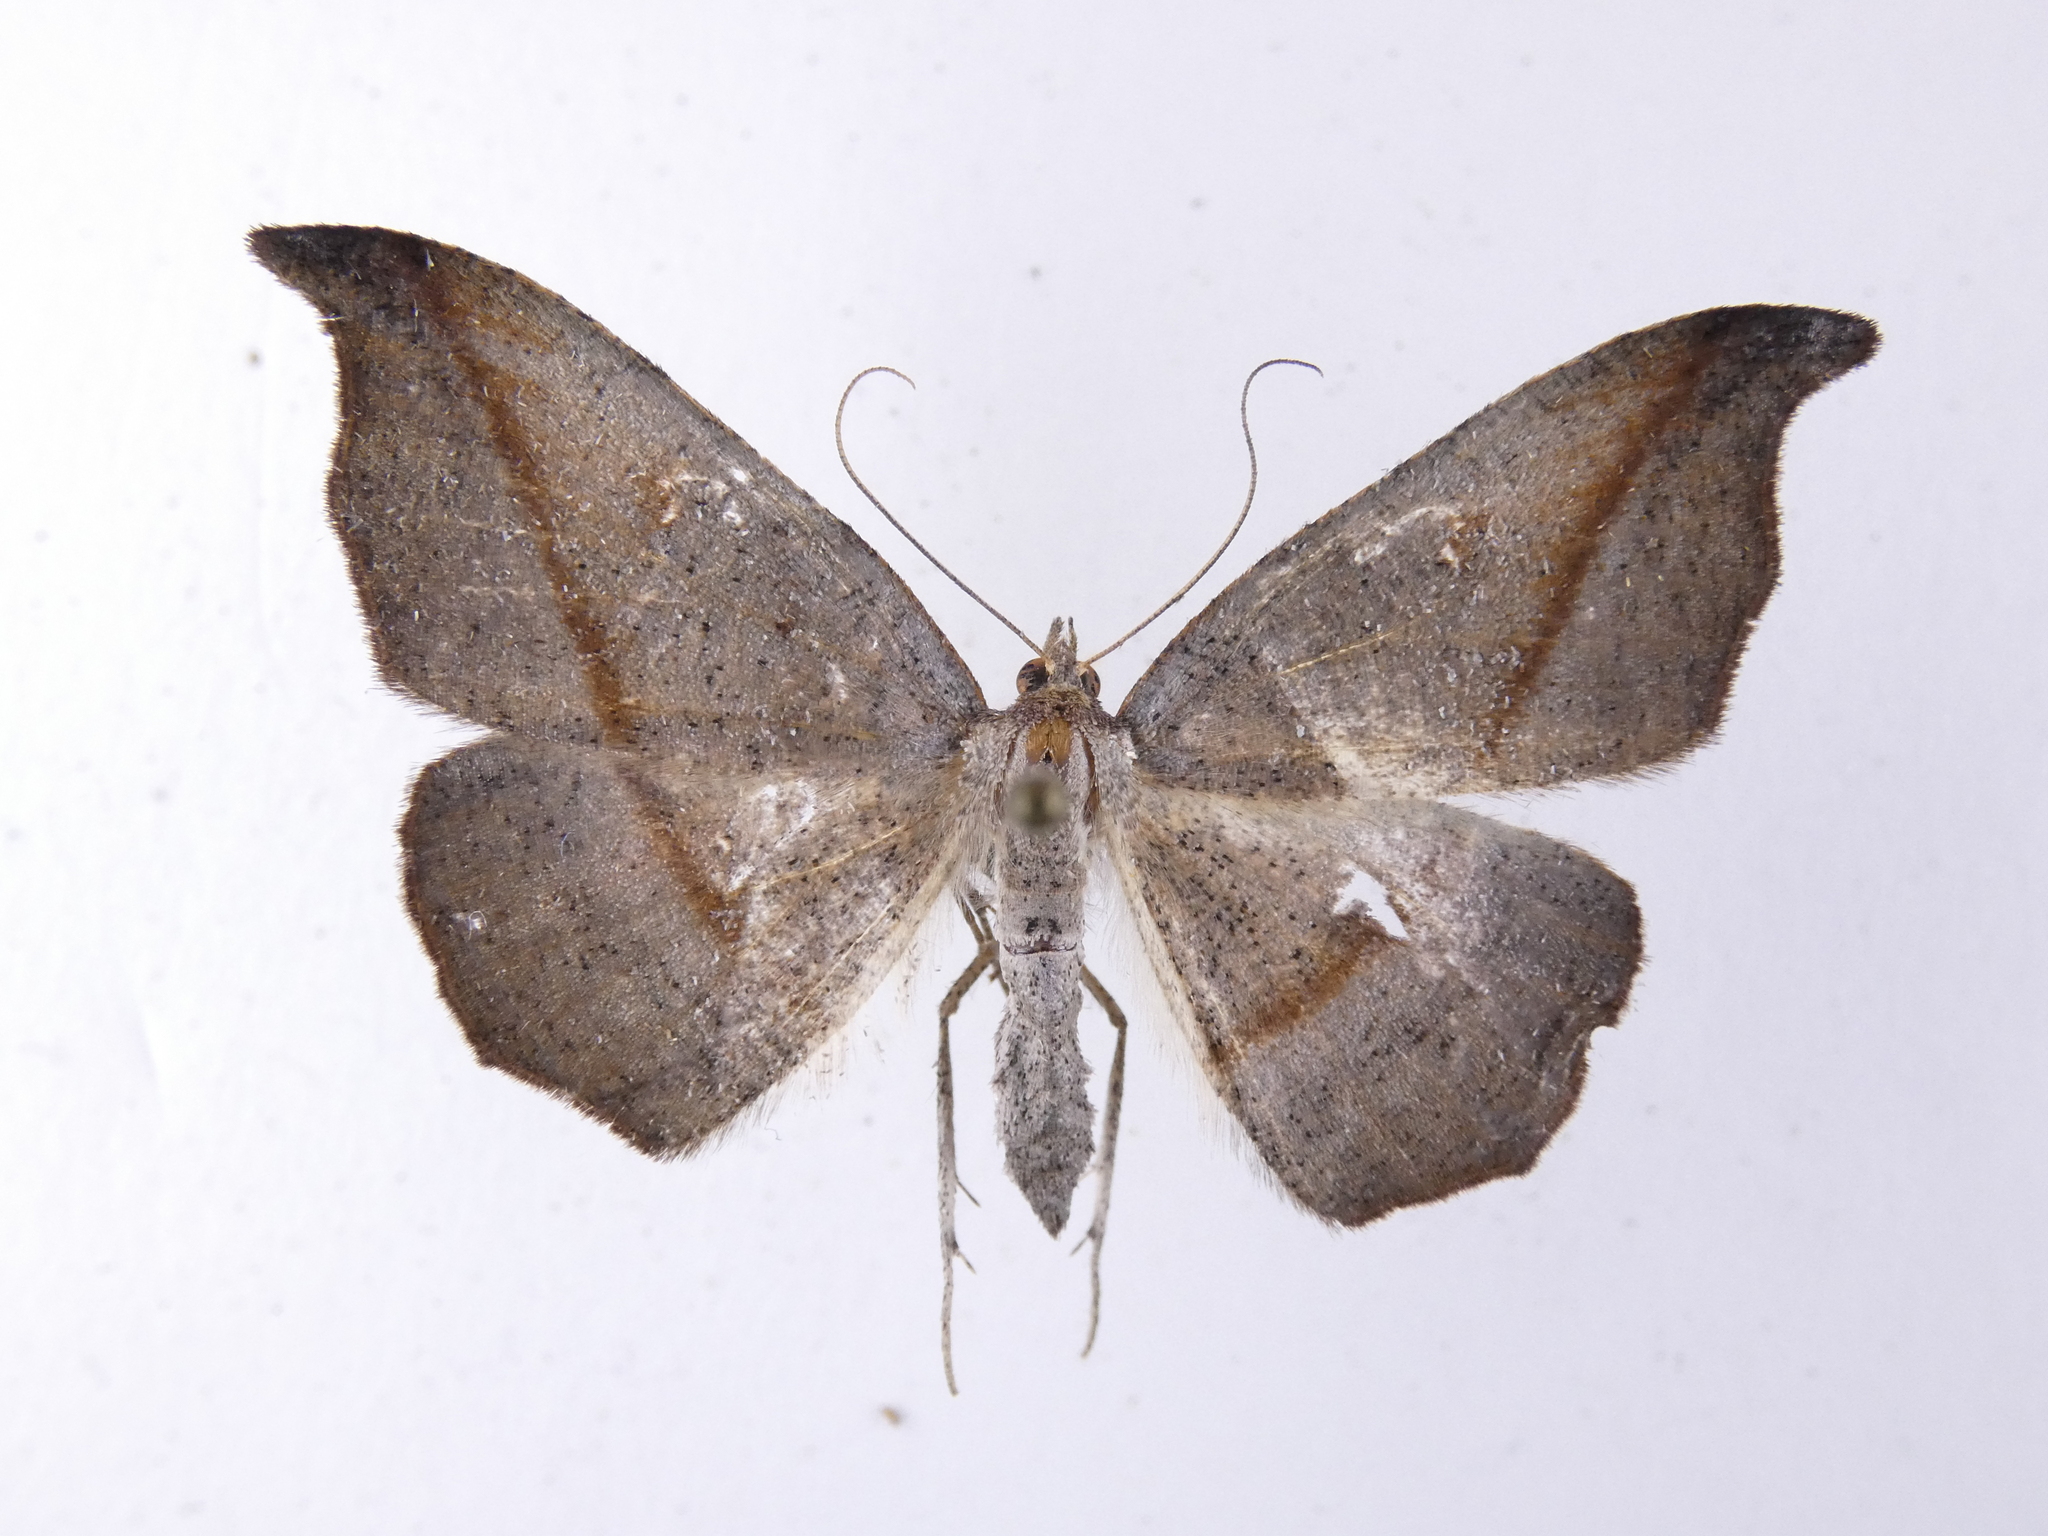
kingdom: Animalia
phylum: Arthropoda
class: Insecta
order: Lepidoptera
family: Geometridae
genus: Sarisa
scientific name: Sarisa muriferata
